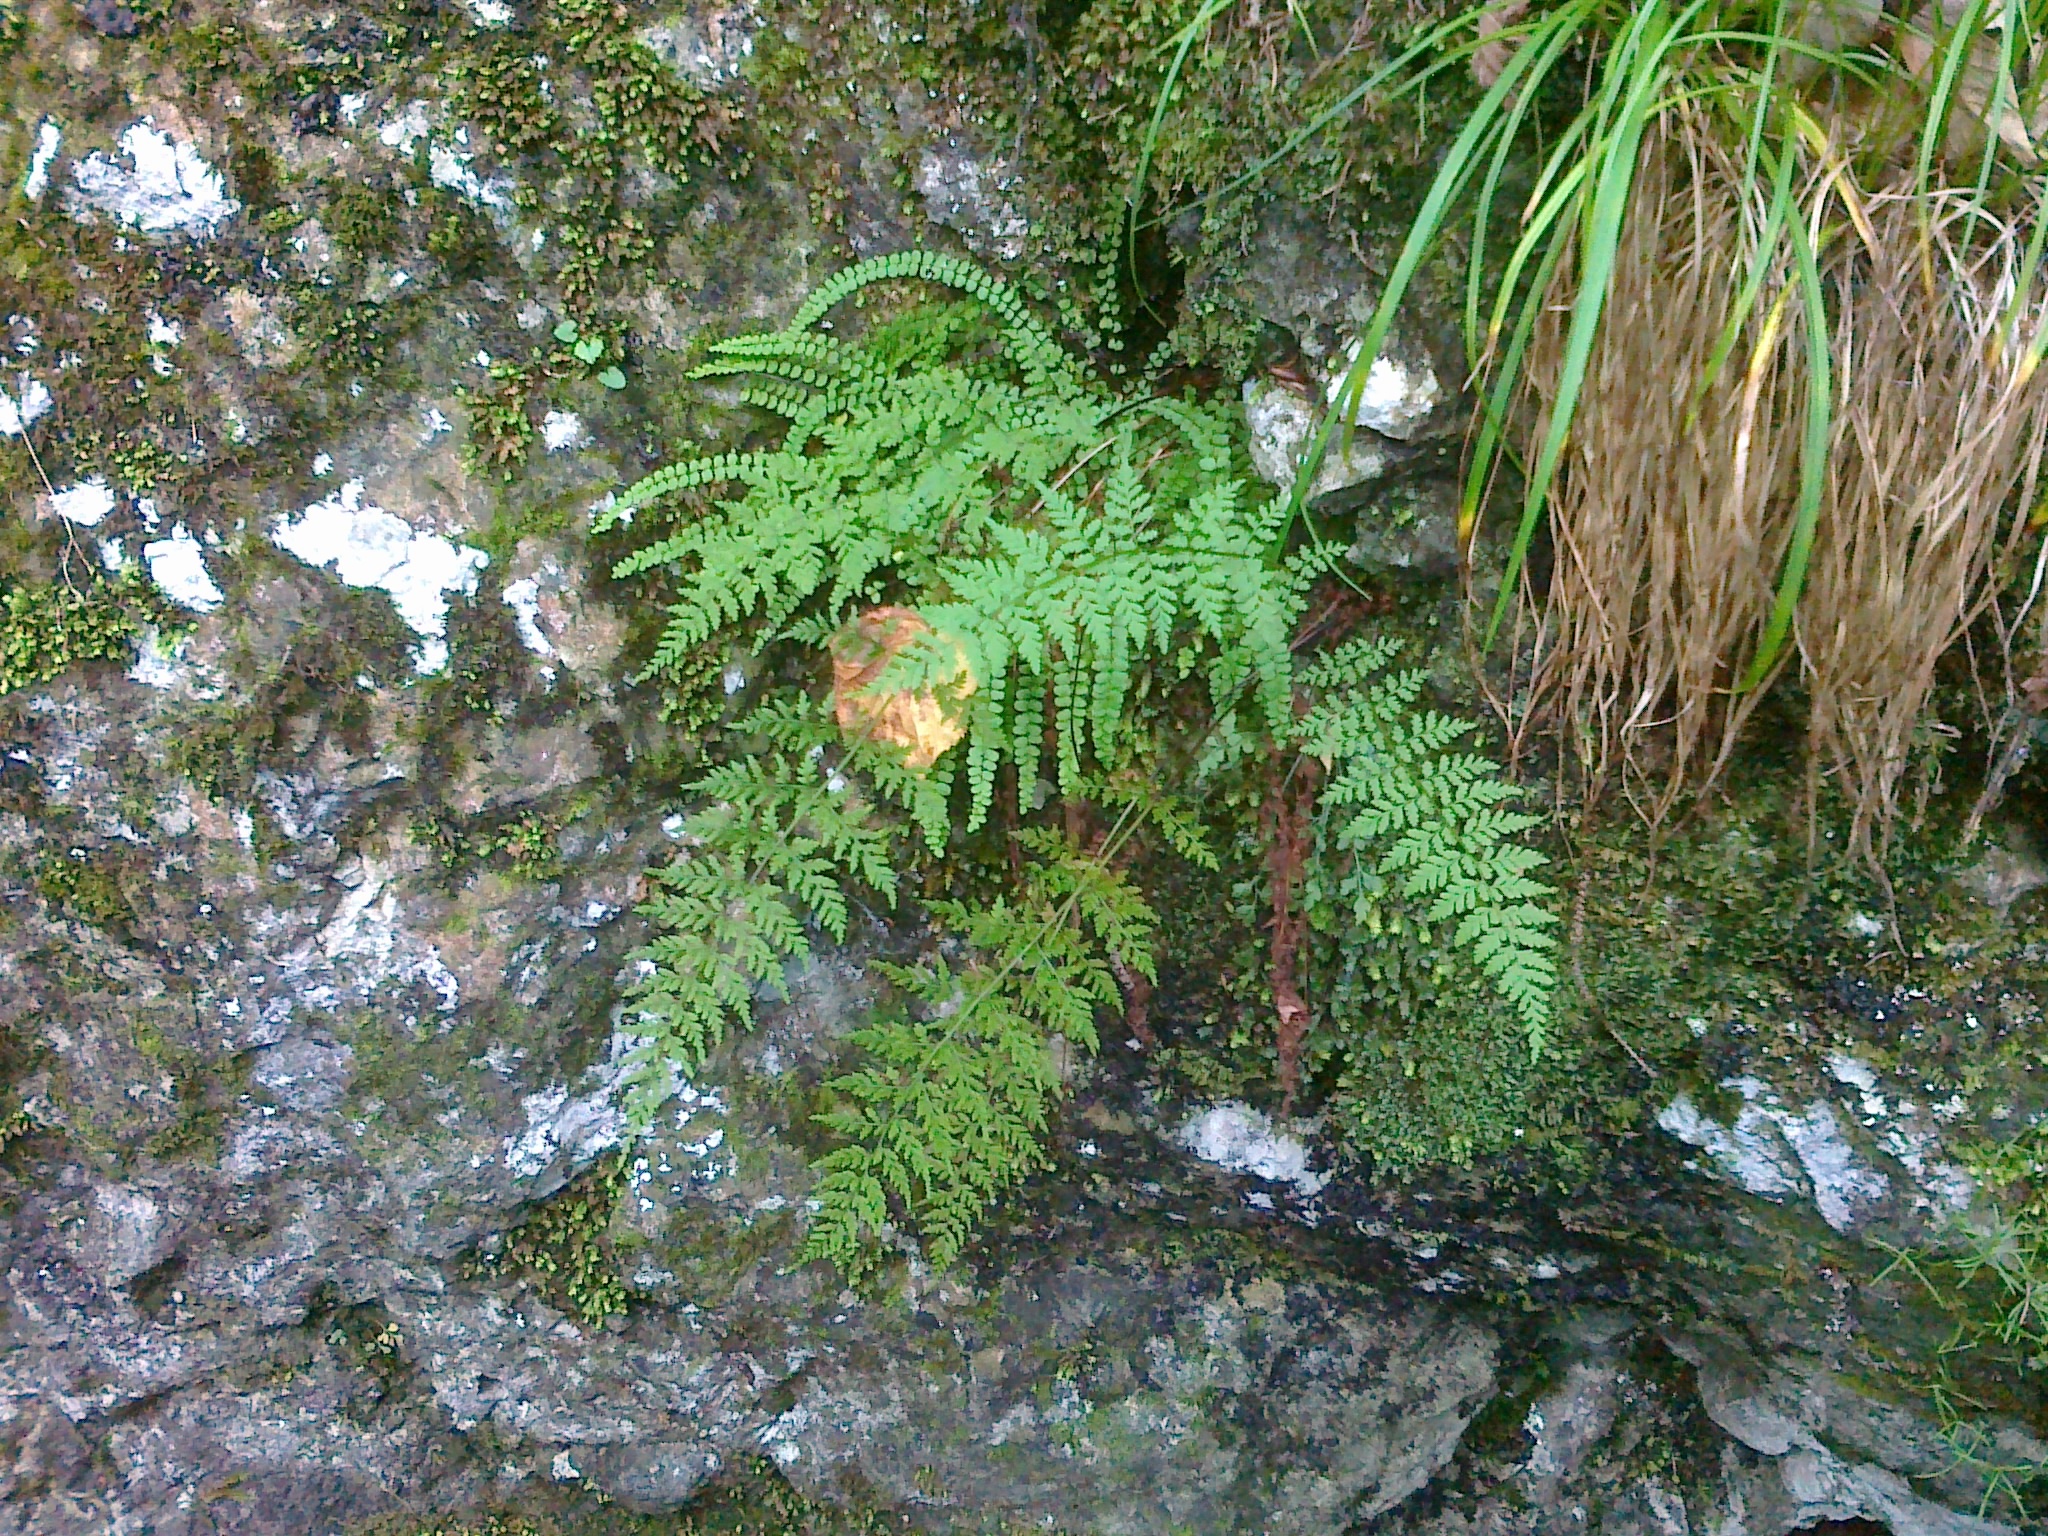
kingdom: Plantae
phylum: Tracheophyta
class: Polypodiopsida
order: Polypodiales
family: Cystopteridaceae
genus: Cystopteris
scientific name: Cystopteris fragilis
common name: Brittle bladder fern
